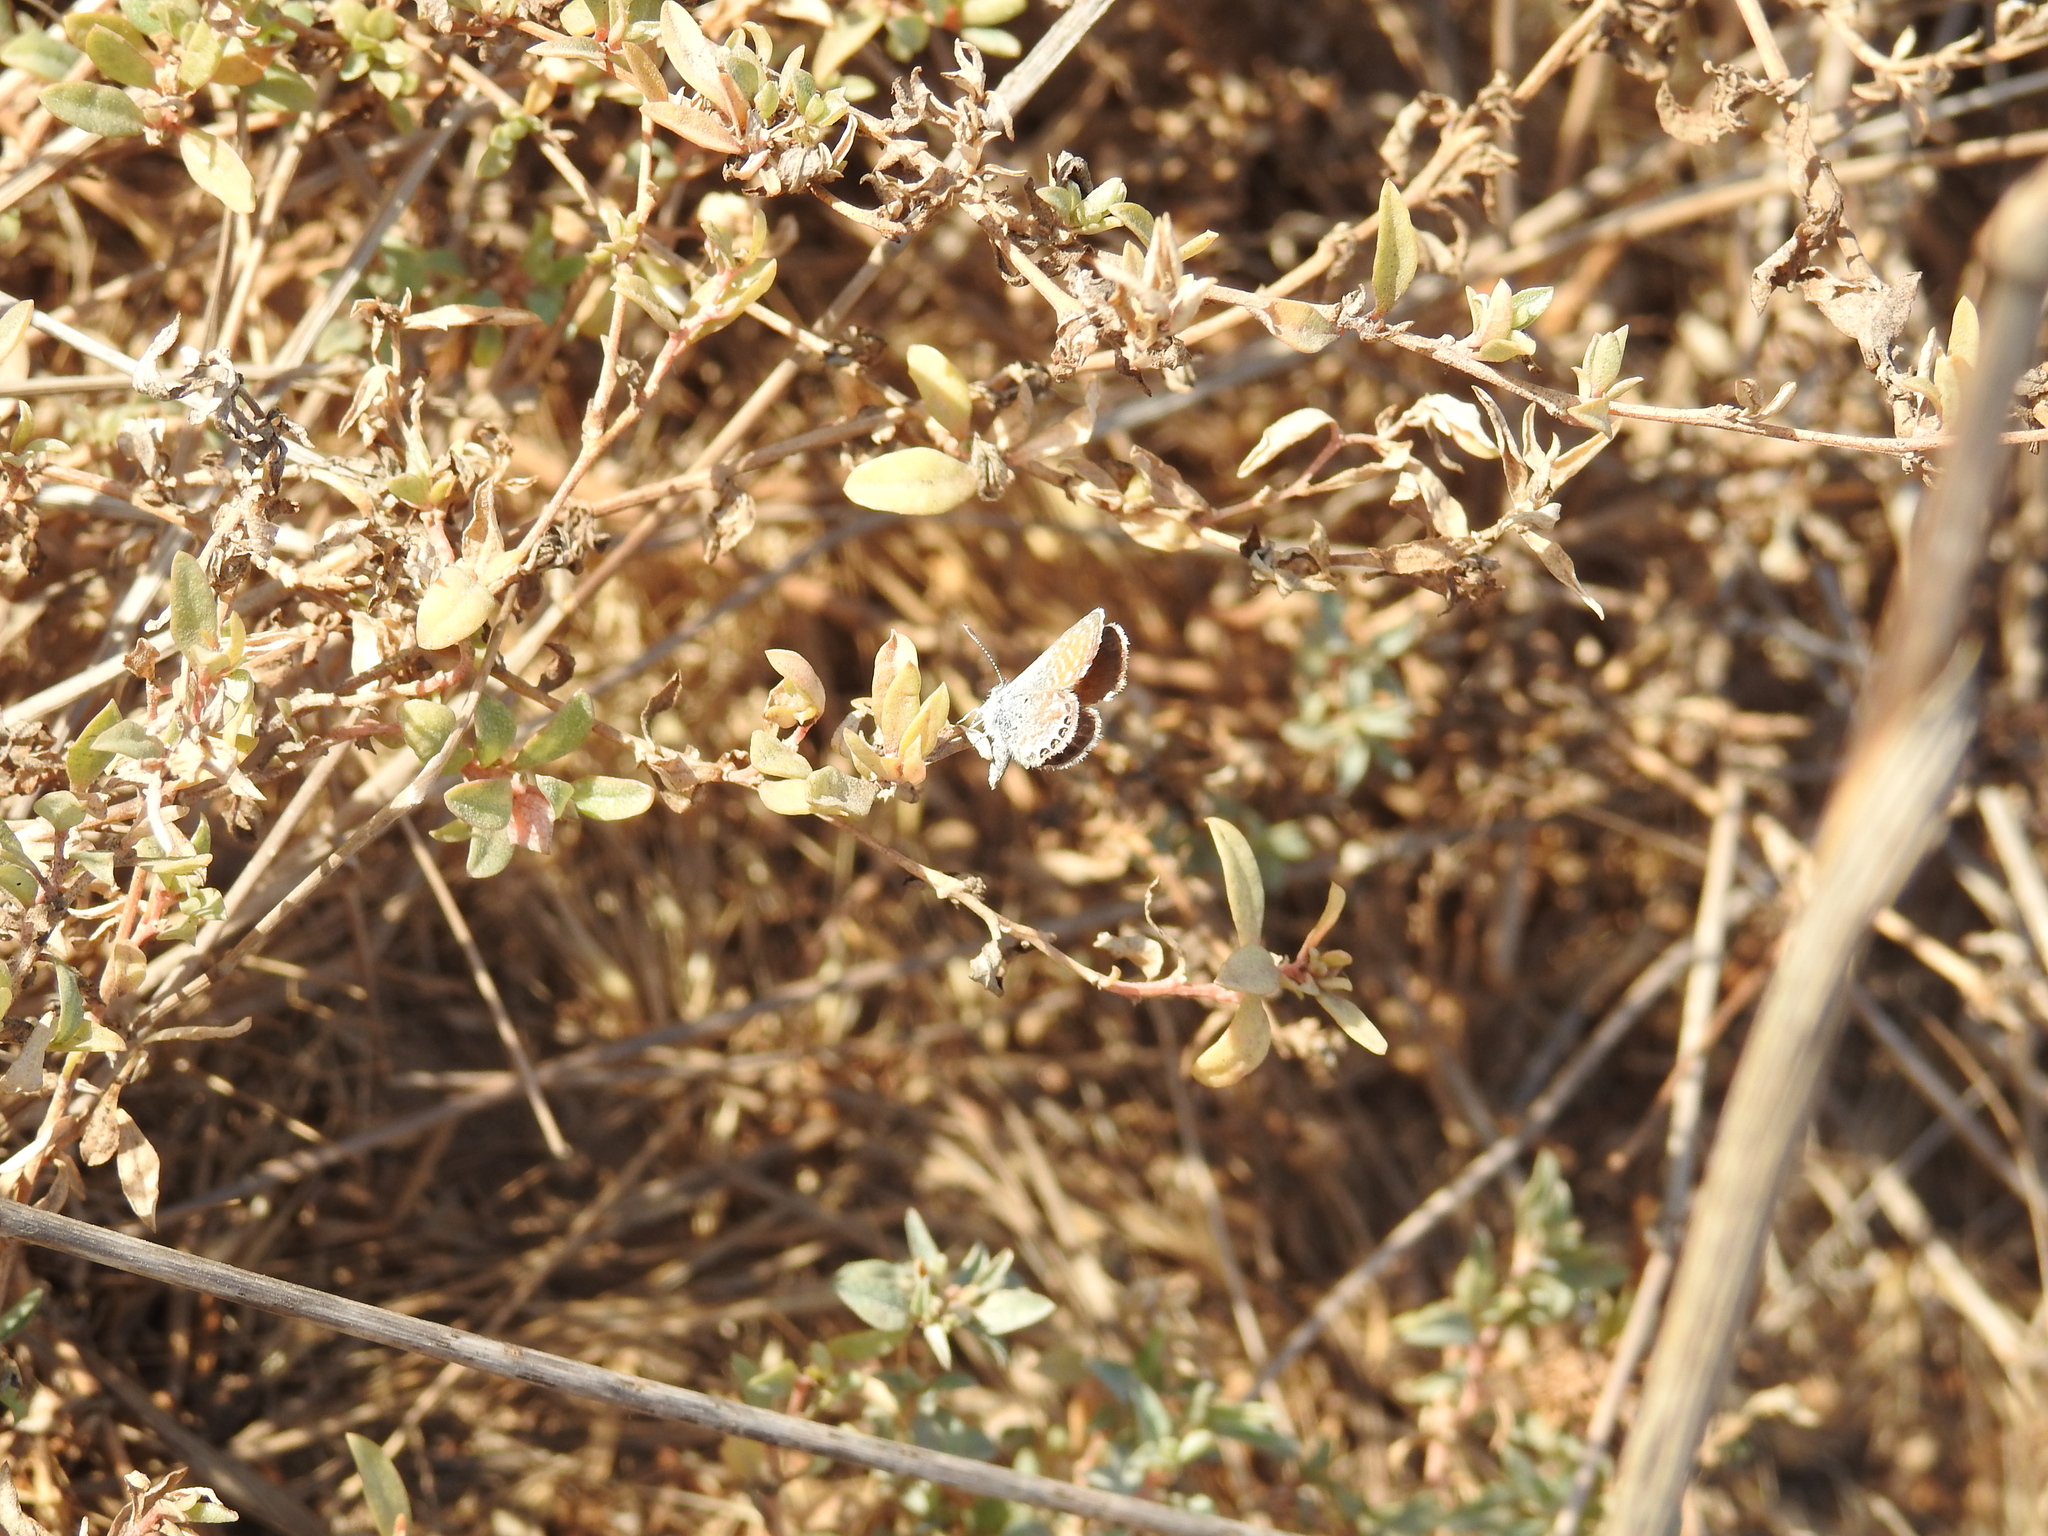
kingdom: Animalia
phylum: Arthropoda
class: Insecta
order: Lepidoptera
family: Lycaenidae
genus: Brephidium
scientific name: Brephidium exilis
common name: Pygmy blue
